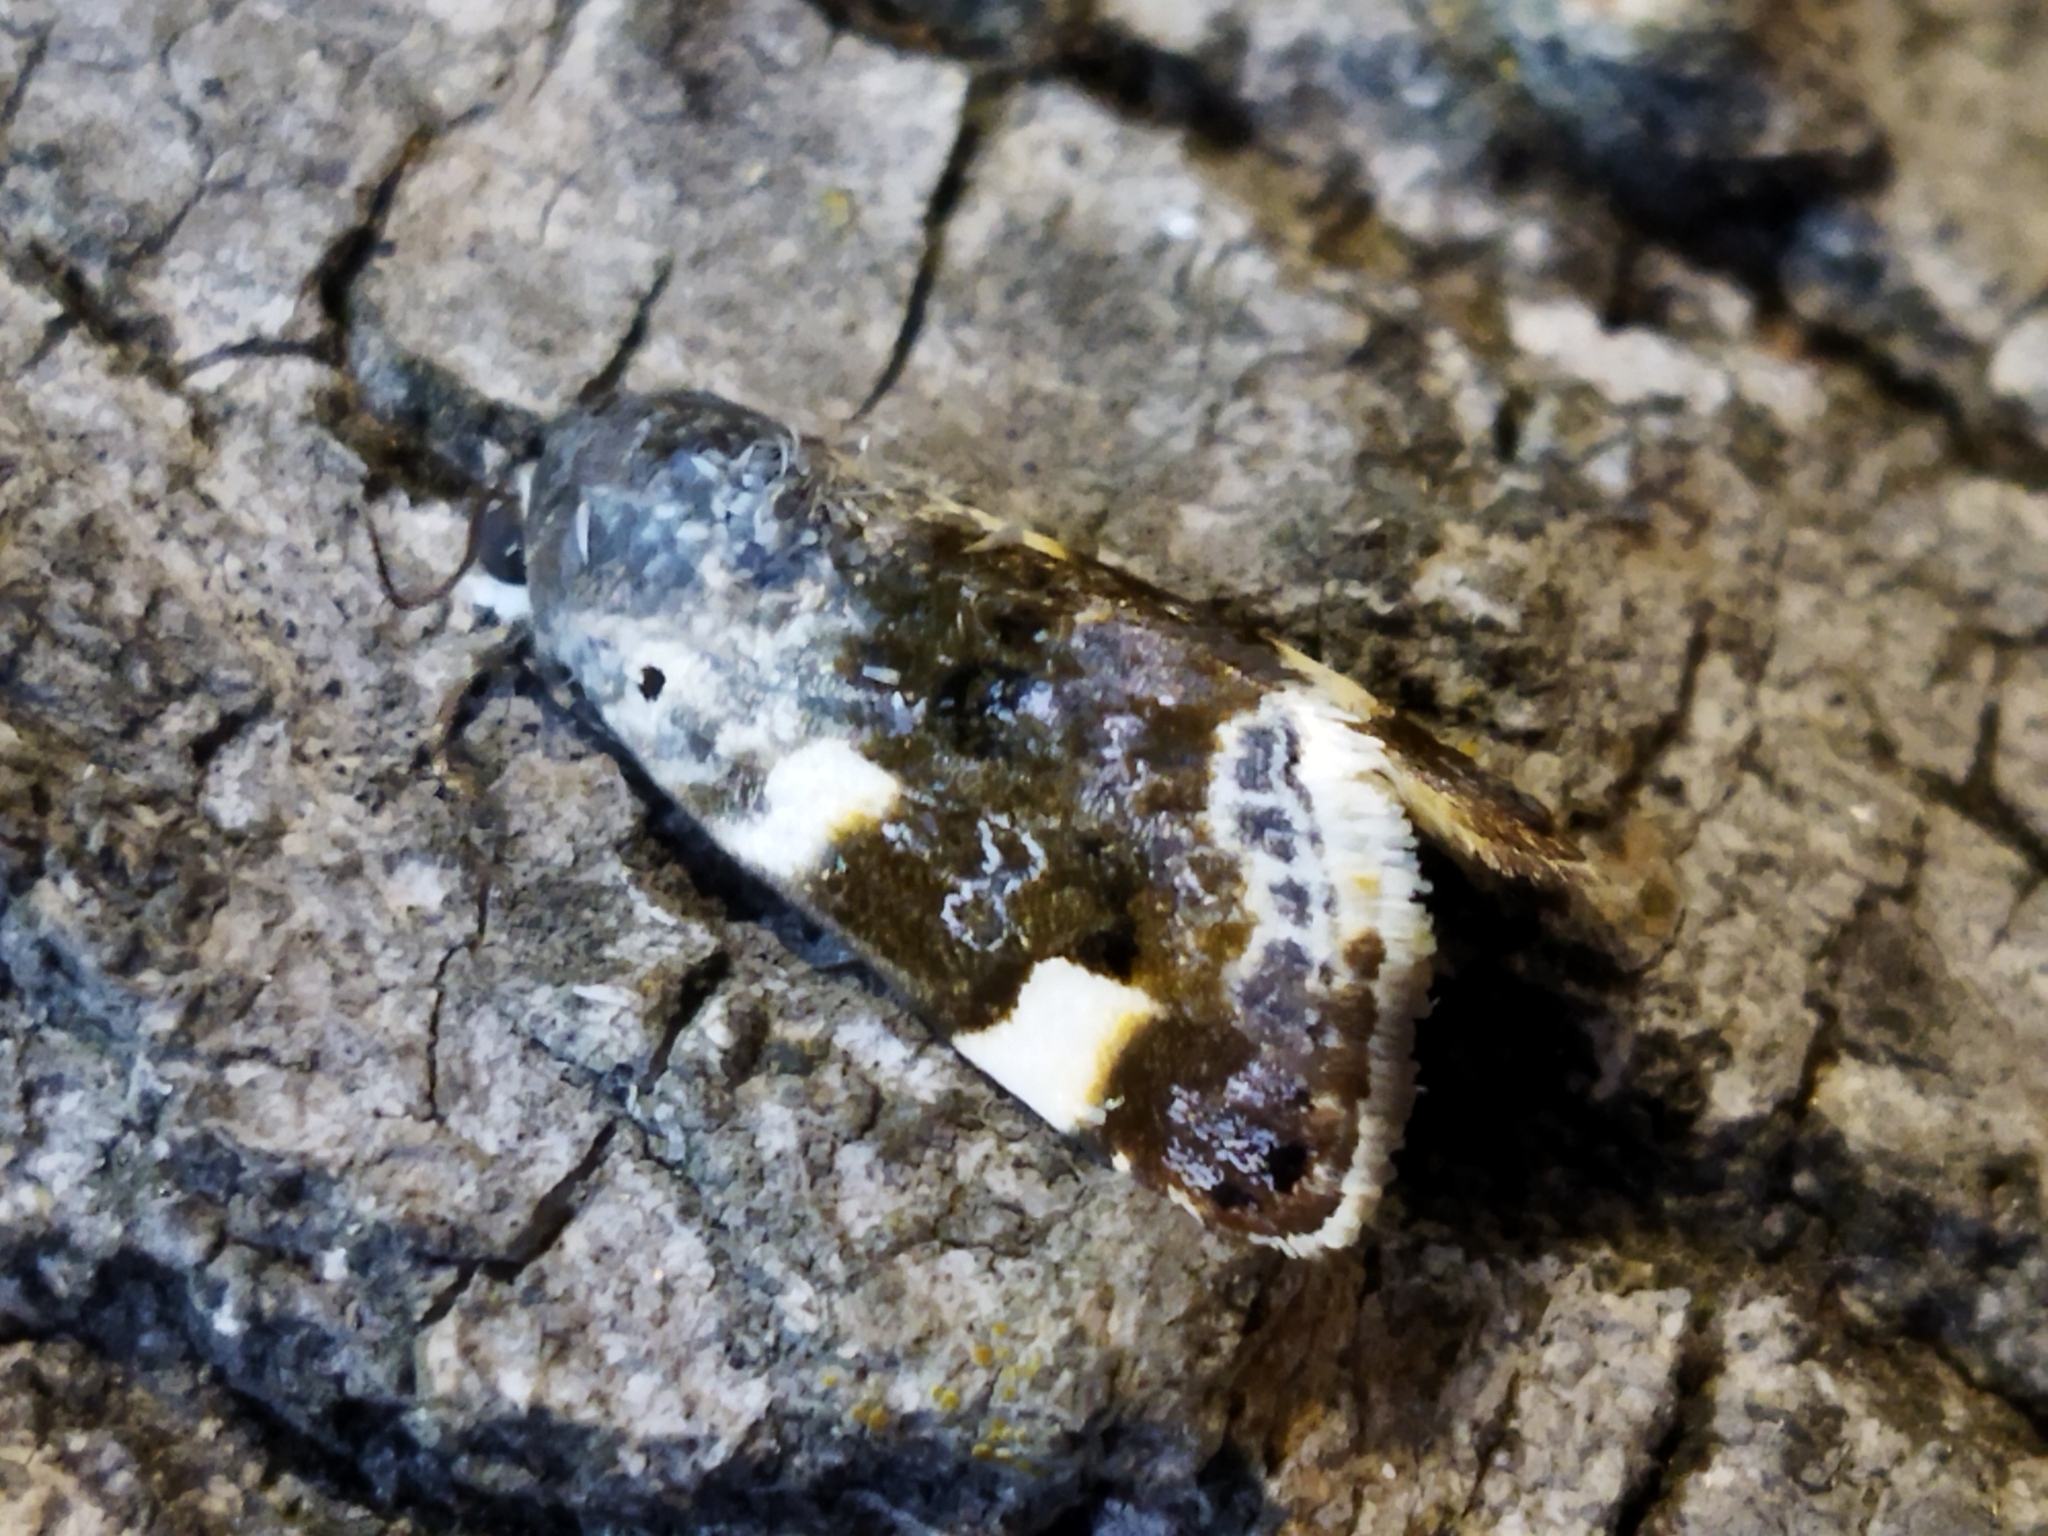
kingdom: Animalia
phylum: Arthropoda
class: Insecta
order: Lepidoptera
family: Noctuidae
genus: Acontia
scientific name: Acontia lucida
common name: Pale shoulder
